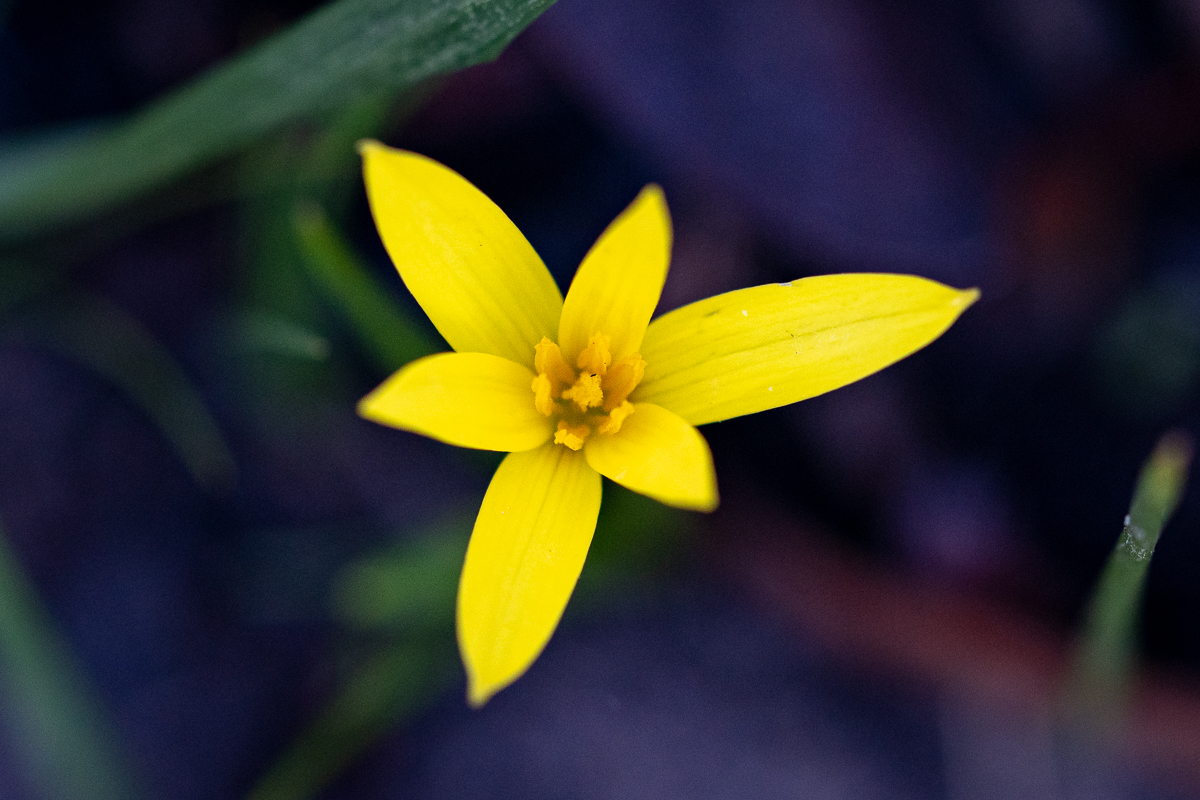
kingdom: Plantae
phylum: Tracheophyta
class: Liliopsida
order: Asparagales
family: Hypoxidaceae
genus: Pauridia
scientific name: Pauridia curculigoides
